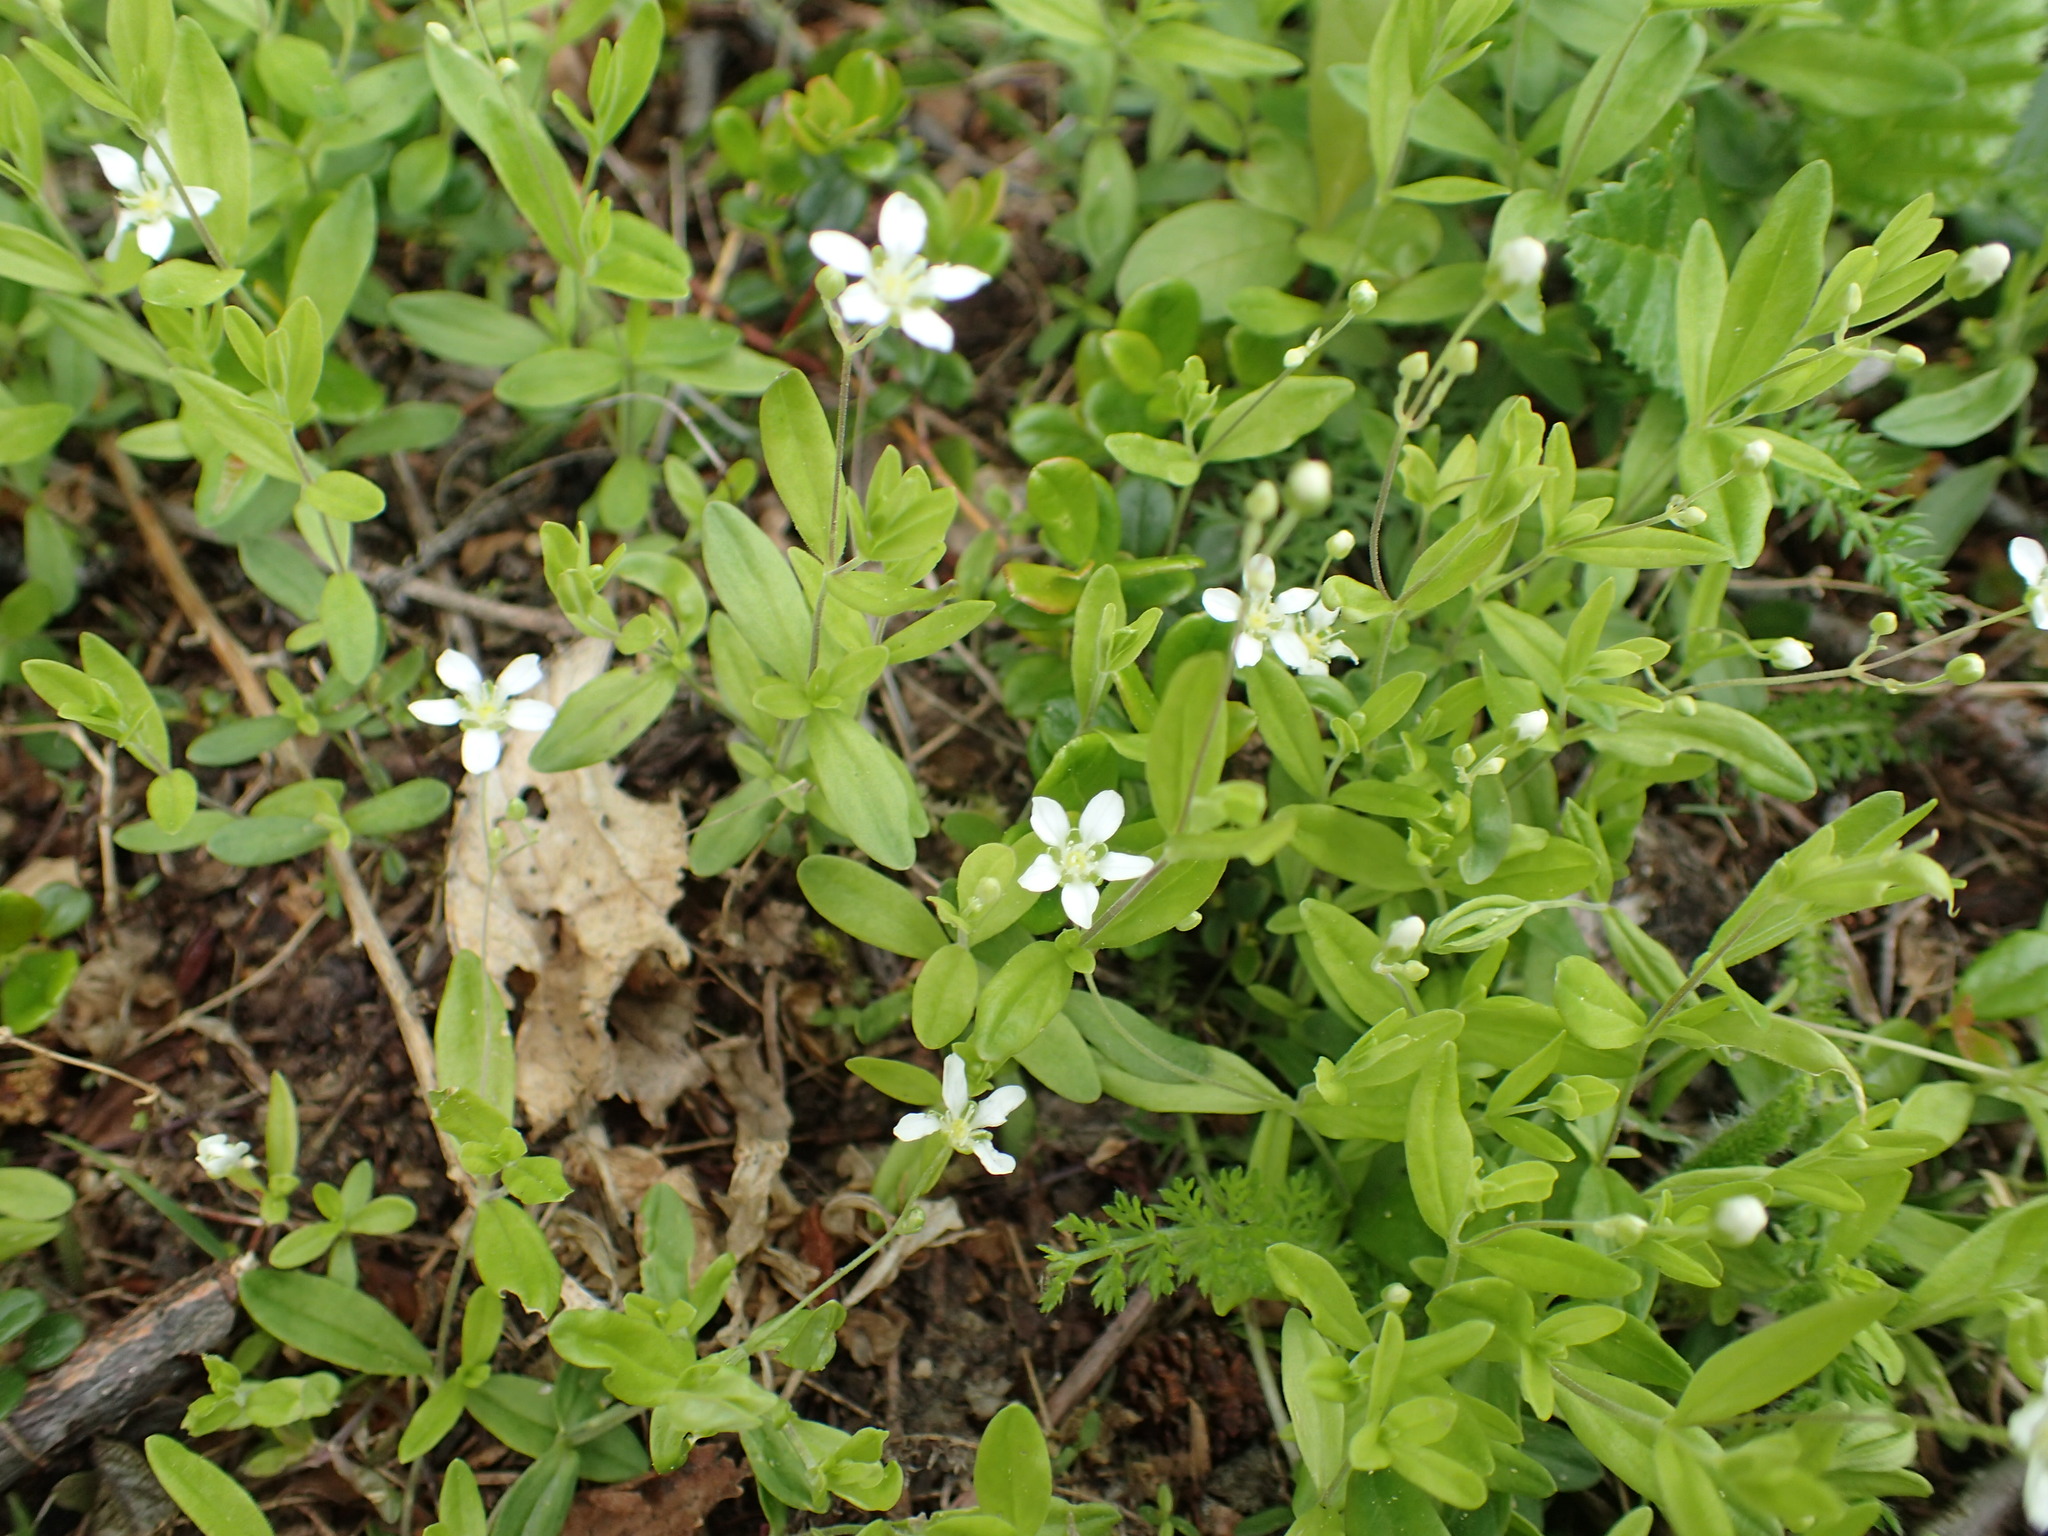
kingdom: Plantae
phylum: Tracheophyta
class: Magnoliopsida
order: Caryophyllales
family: Caryophyllaceae
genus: Moehringia
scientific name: Moehringia lateriflora
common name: Blunt-leaved sandwort
